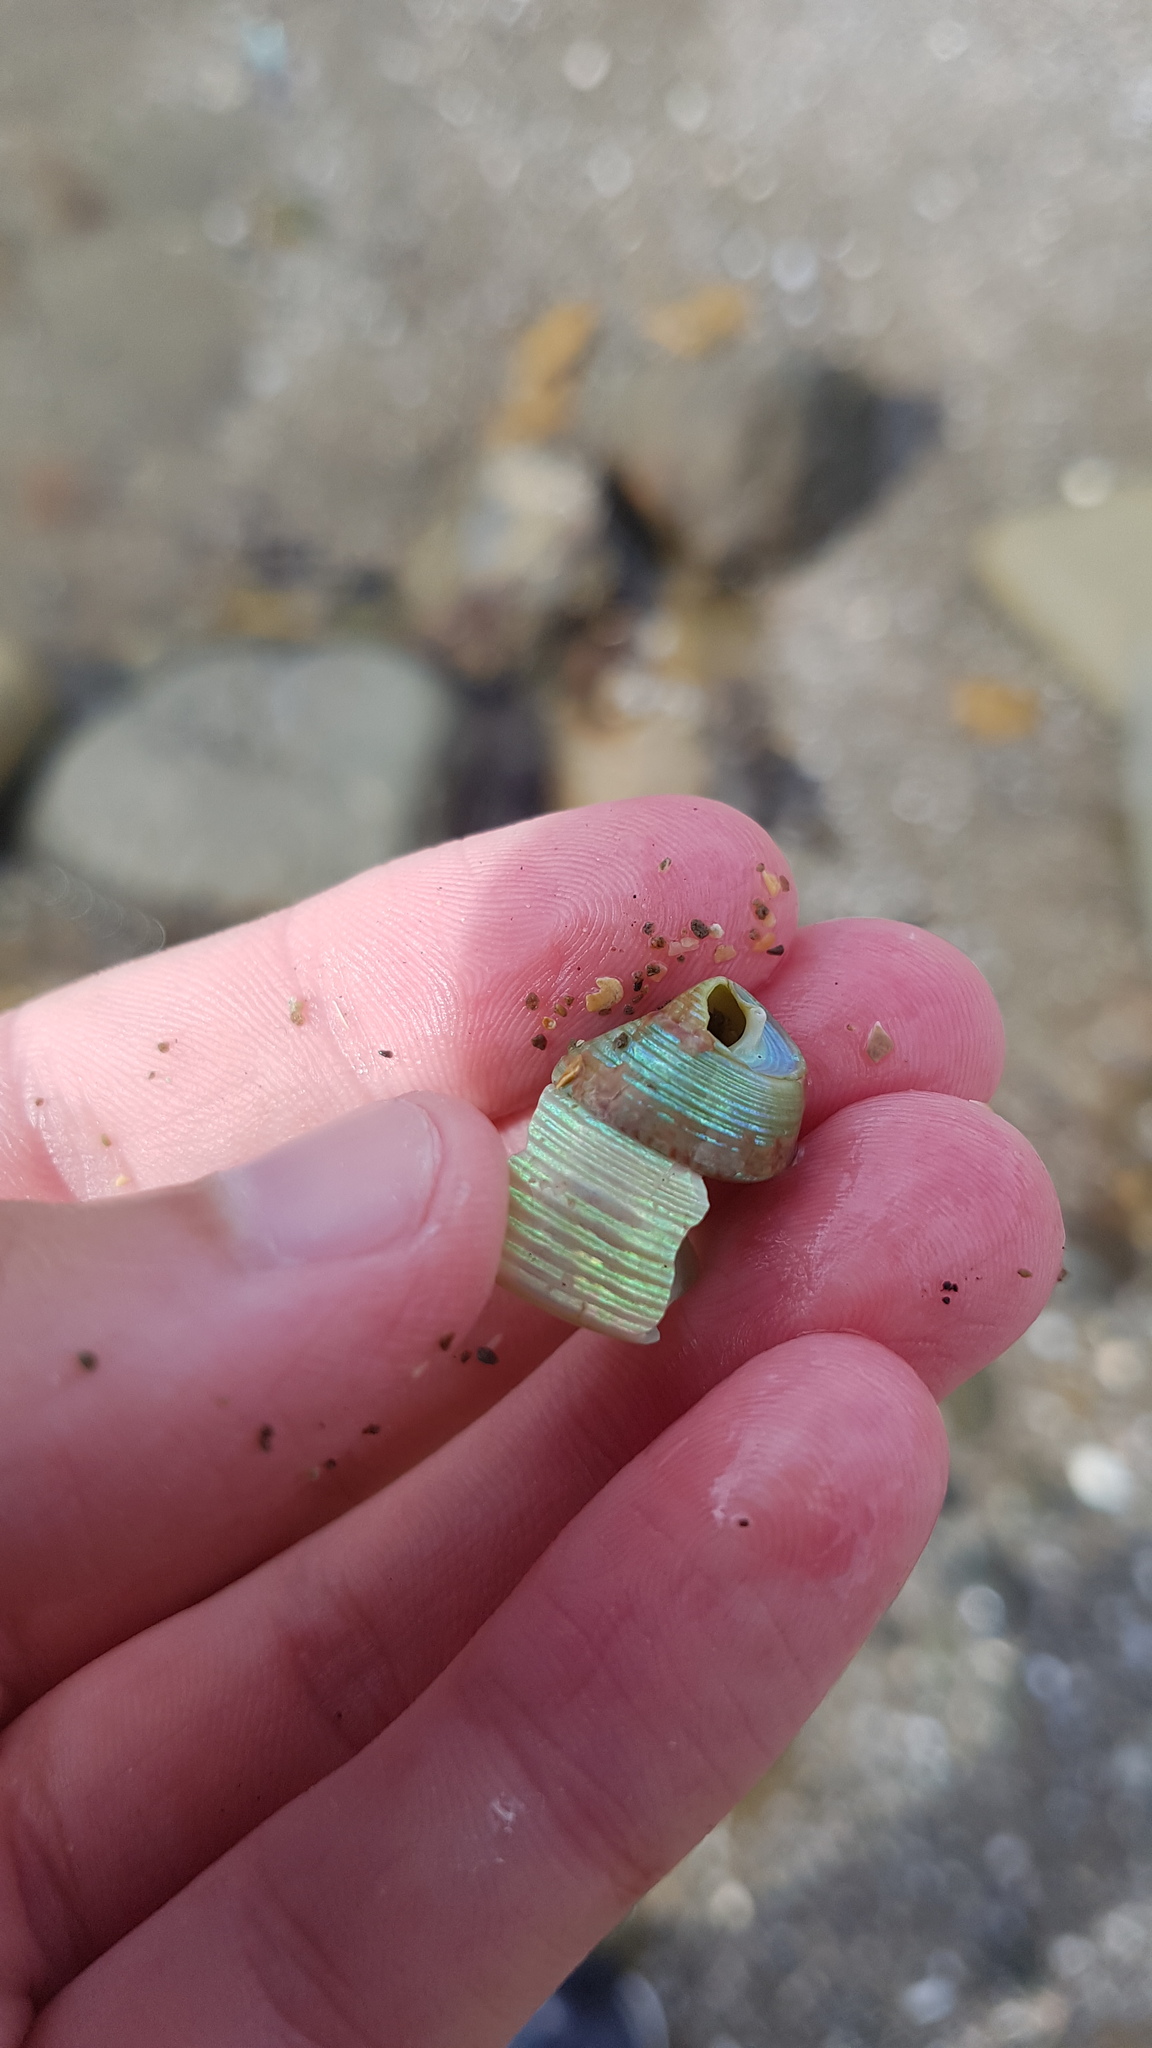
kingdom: Animalia
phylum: Mollusca
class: Gastropoda
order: Trochida
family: Trochidae
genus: Cantharidus
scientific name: Cantharidus opalus
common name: Opal jewel topsnail
